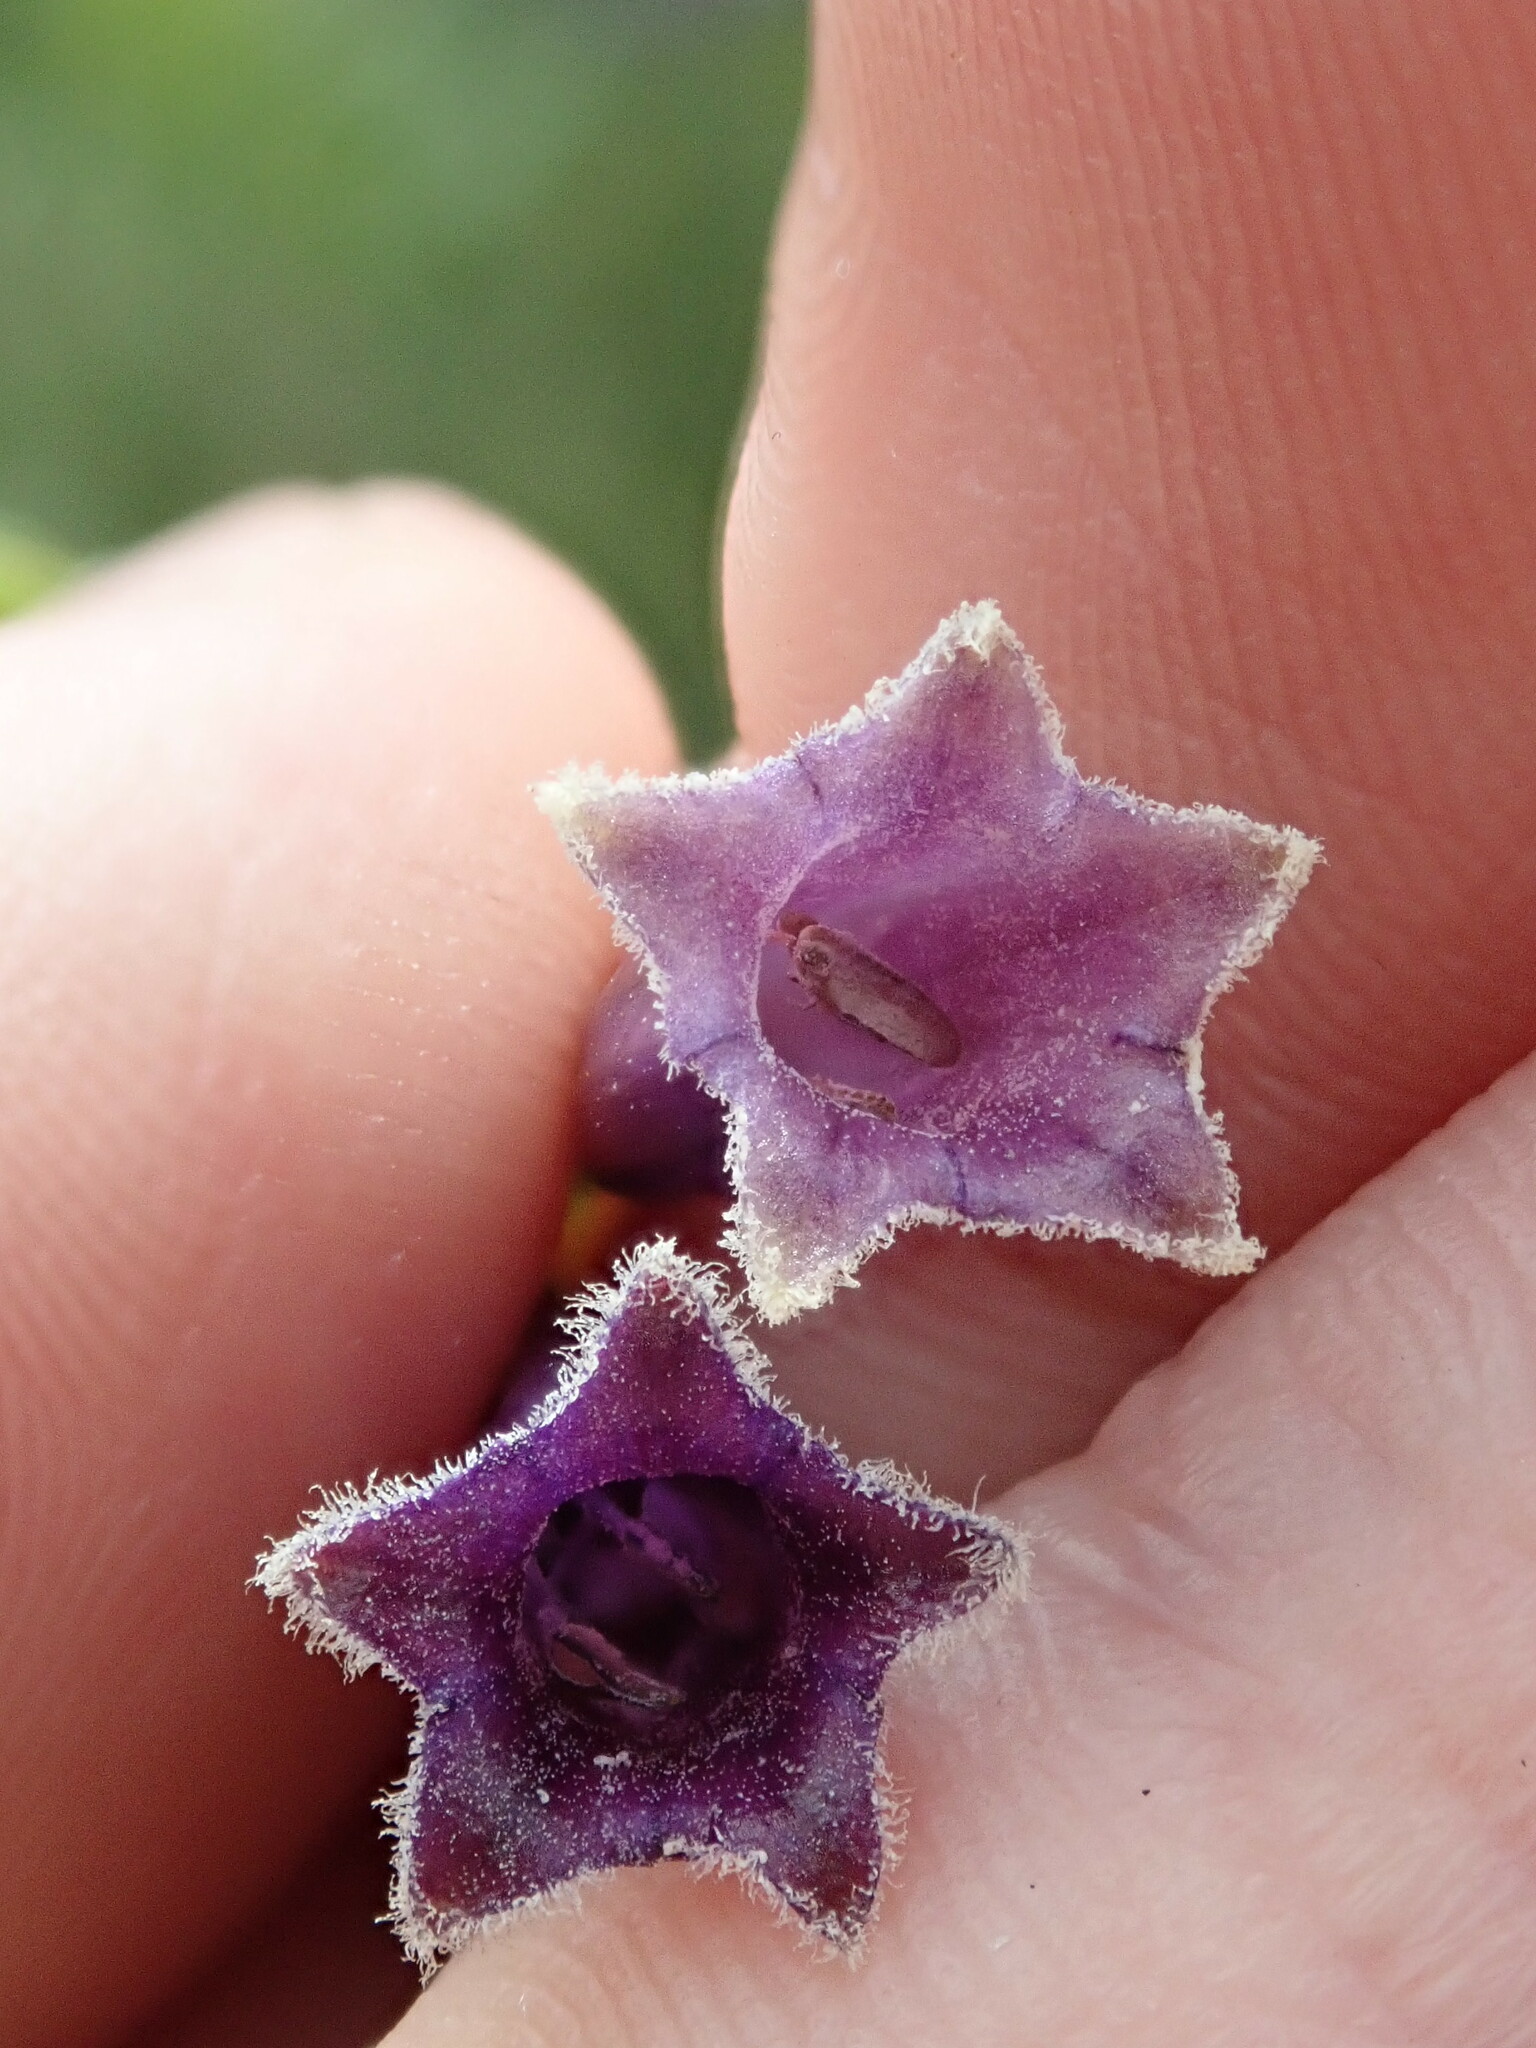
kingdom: Plantae
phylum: Tracheophyta
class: Magnoliopsida
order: Solanales
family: Solanaceae
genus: Dunalia
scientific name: Dunalia brachyacantha
